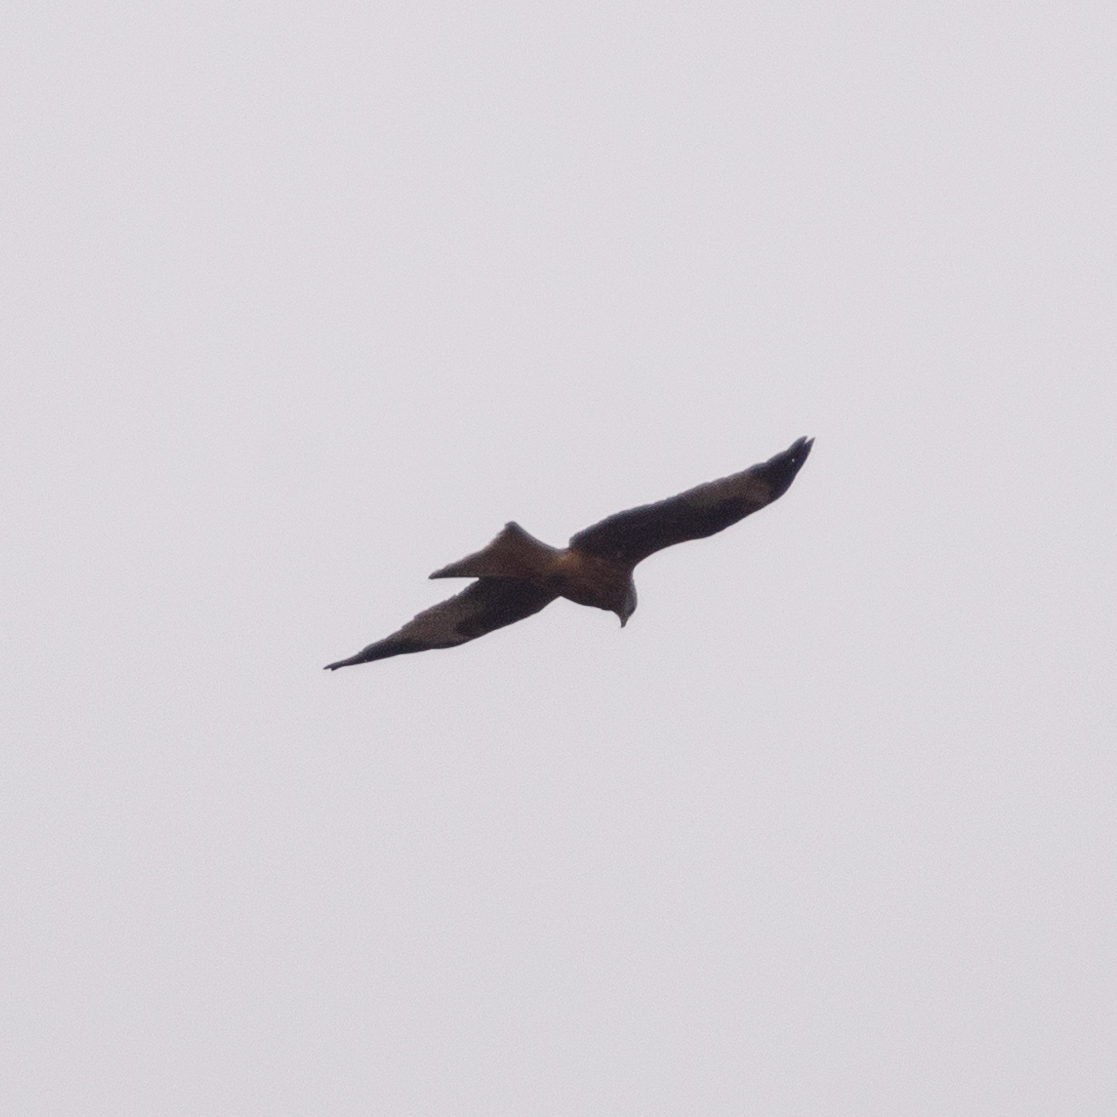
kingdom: Animalia
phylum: Chordata
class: Aves
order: Accipitriformes
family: Accipitridae
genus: Milvus
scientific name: Milvus milvus
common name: Red kite
